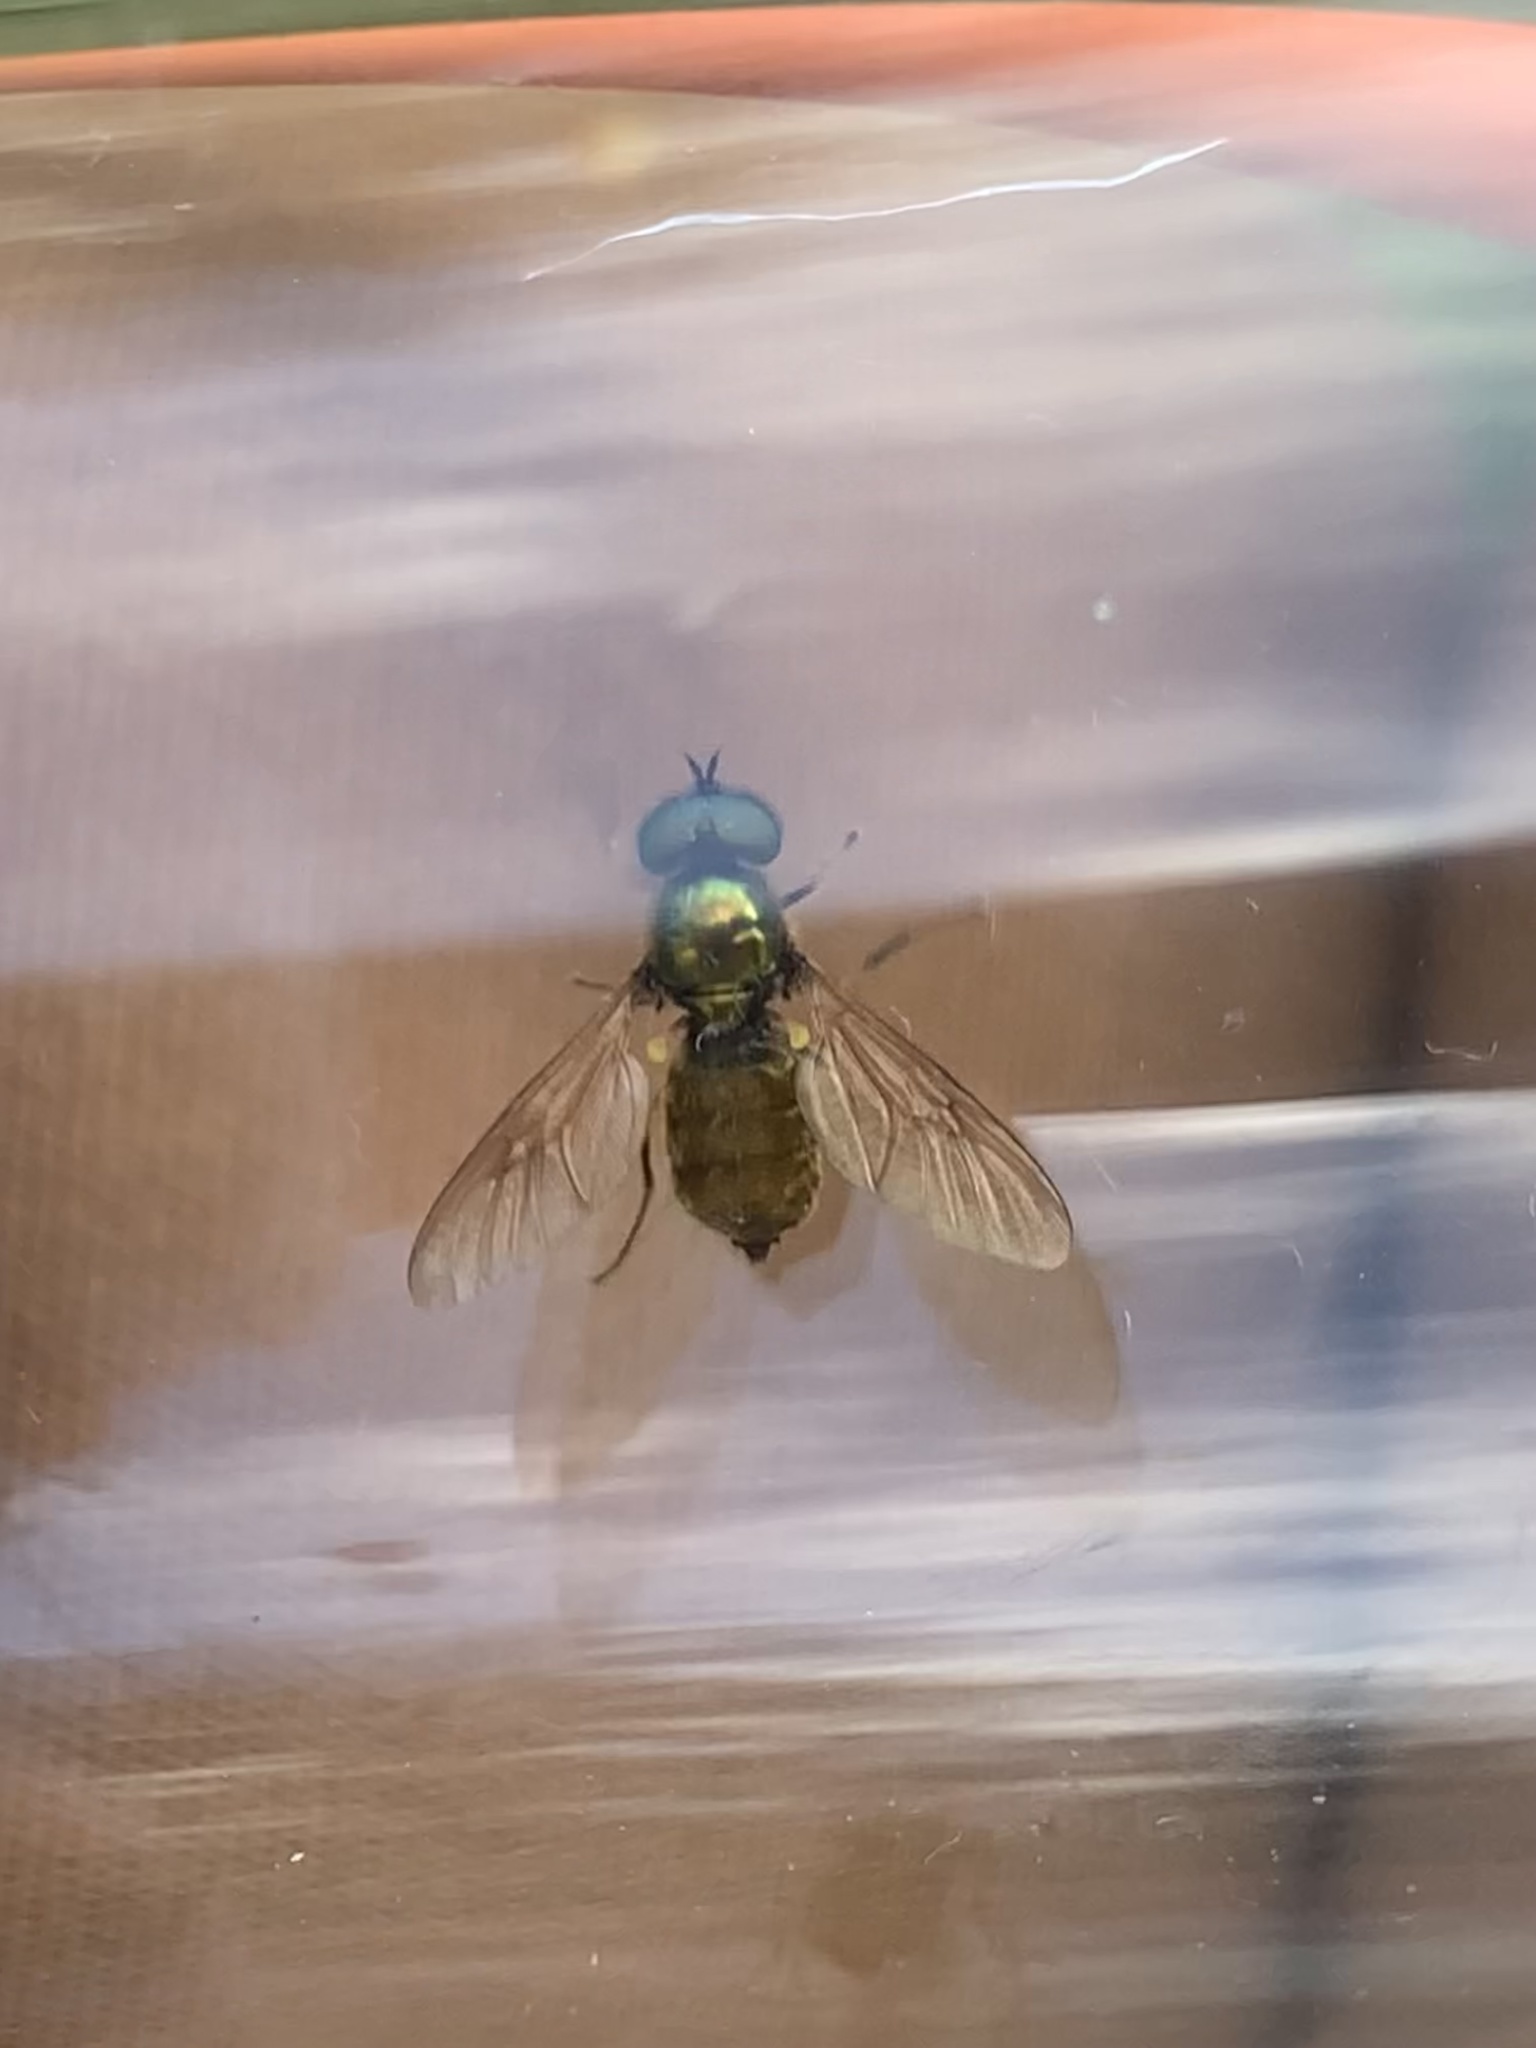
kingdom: Animalia
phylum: Arthropoda
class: Insecta
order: Diptera
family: Stratiomyidae
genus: Chloromyia
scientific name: Chloromyia formosa
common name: Soldier fly
